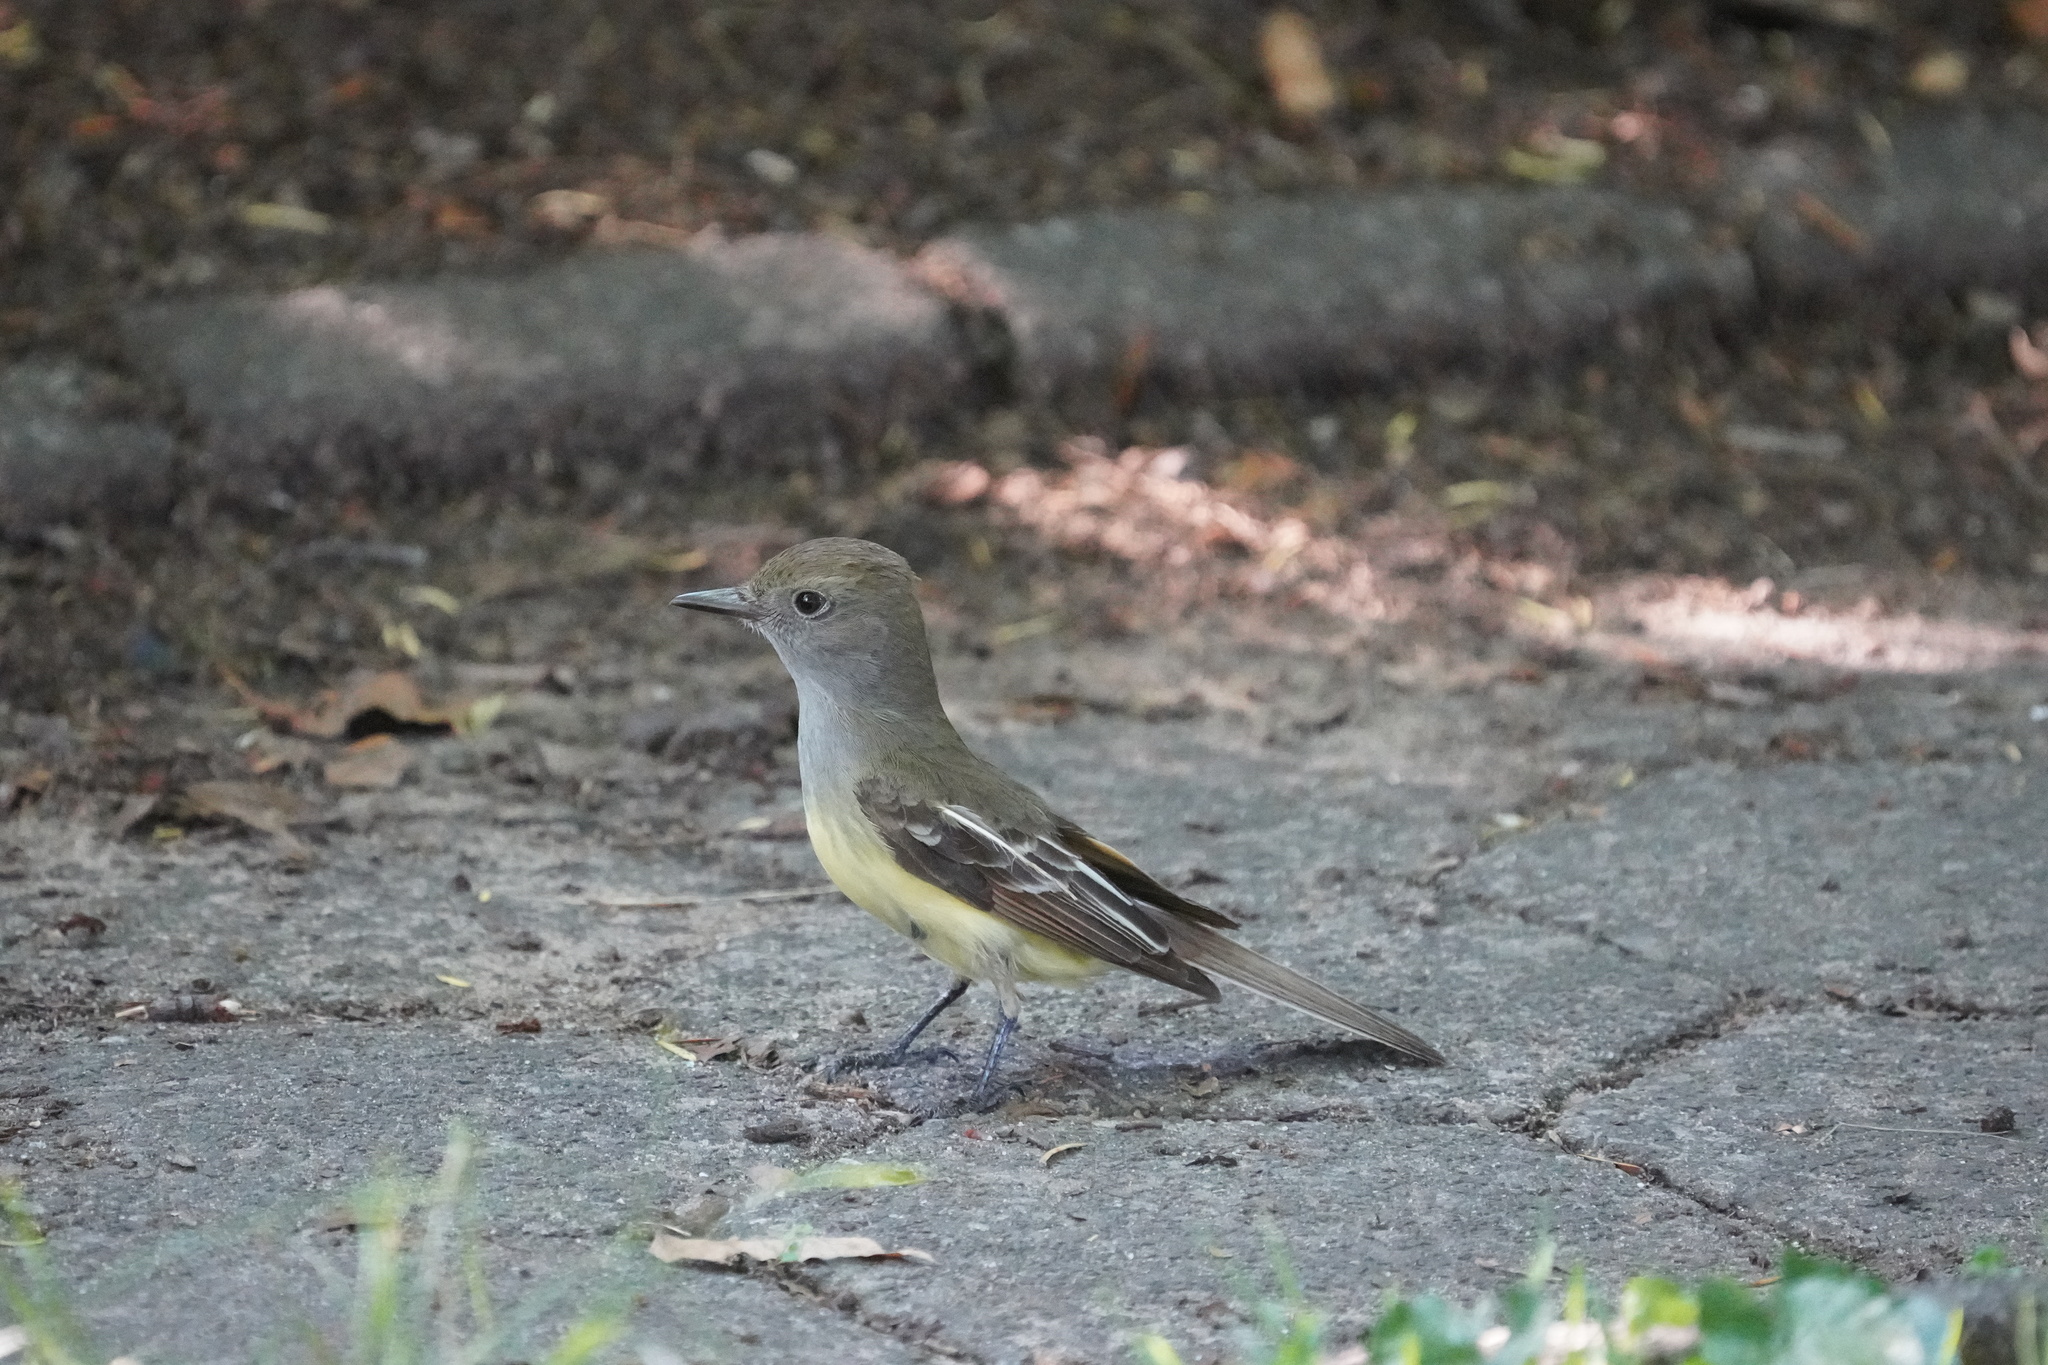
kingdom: Animalia
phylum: Chordata
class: Aves
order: Passeriformes
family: Tyrannidae
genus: Myiarchus
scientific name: Myiarchus crinitus
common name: Great crested flycatcher
